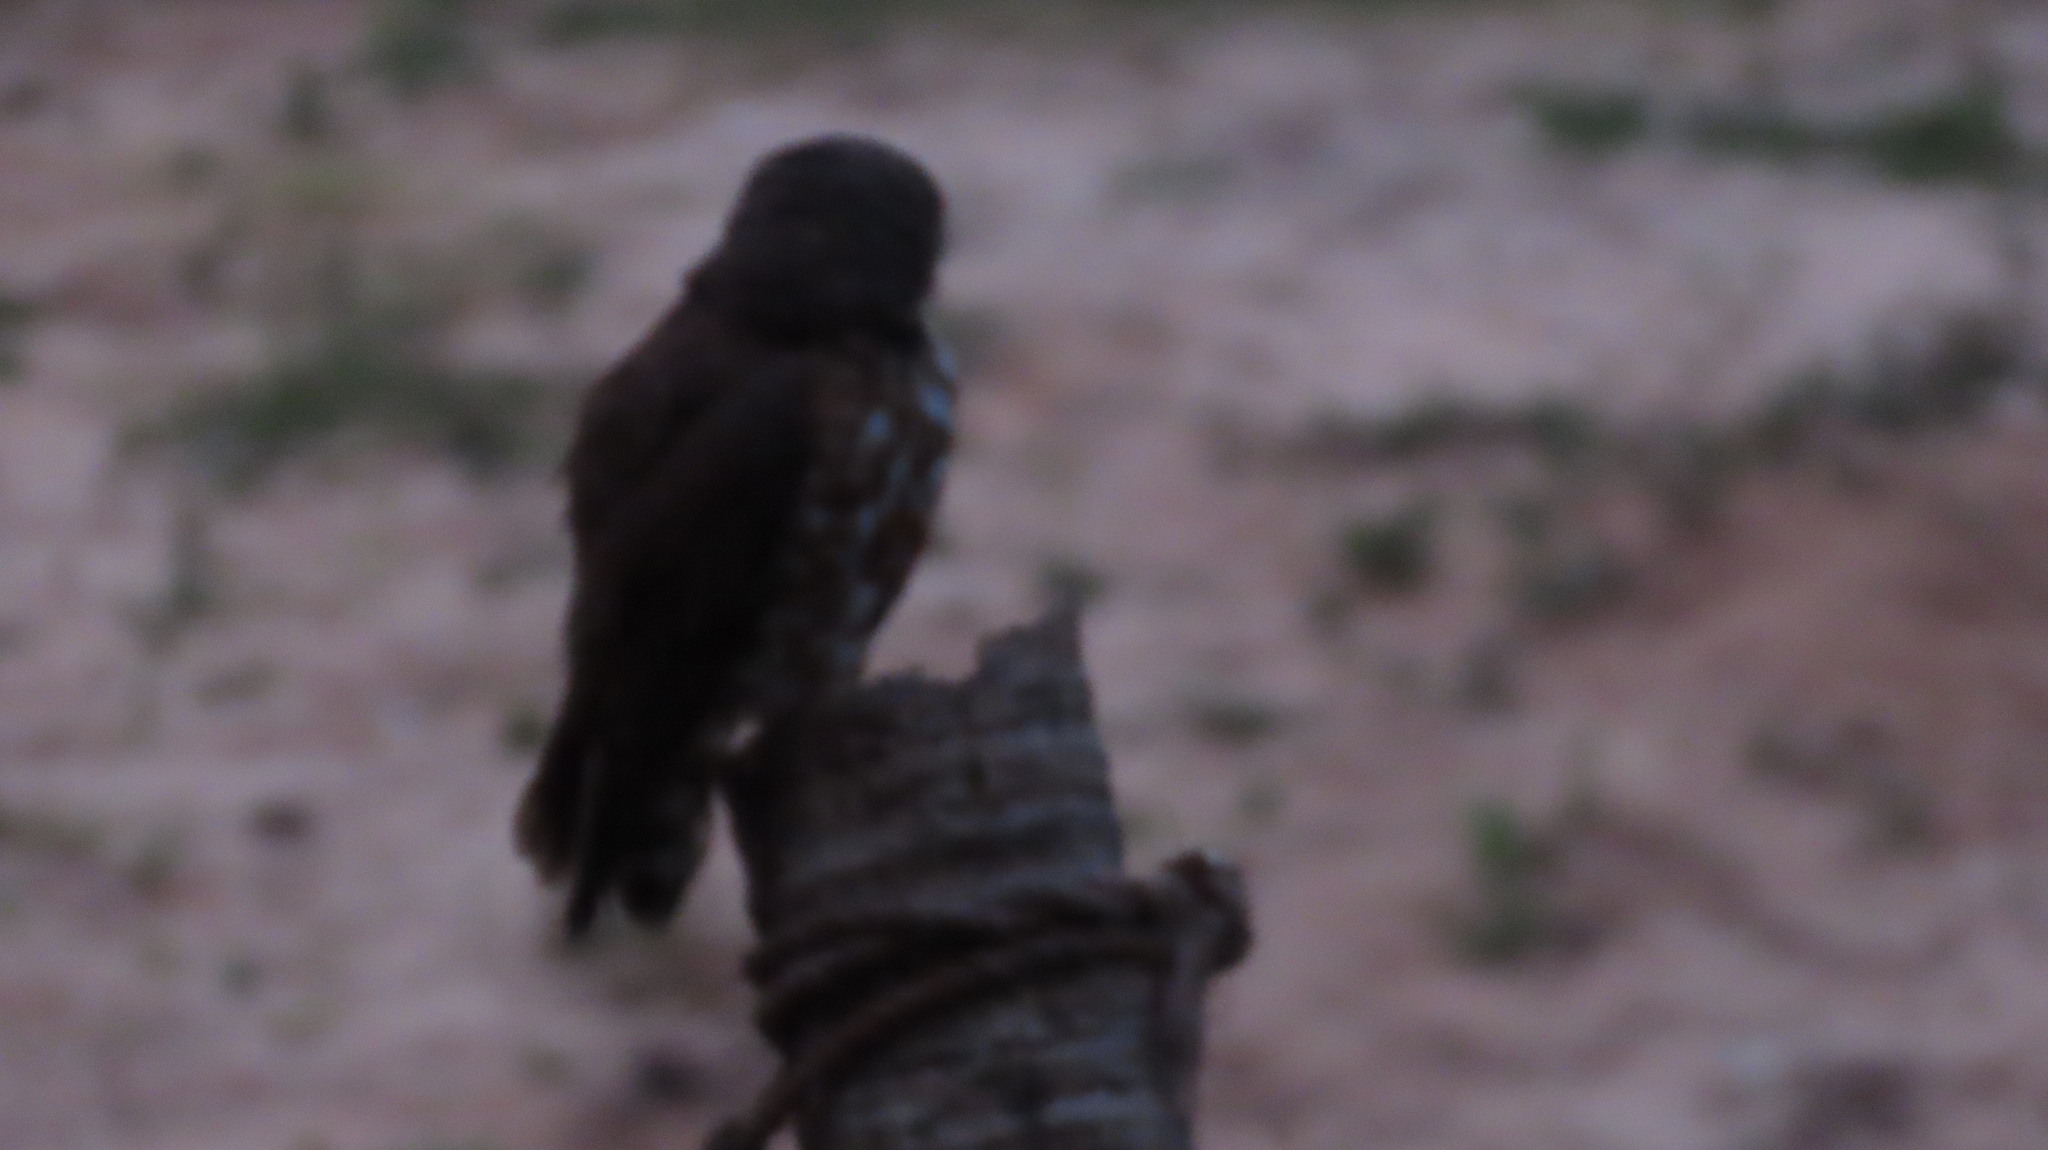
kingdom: Animalia
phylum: Chordata
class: Aves
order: Strigiformes
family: Strigidae
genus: Ninox
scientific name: Ninox scutulata
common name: Brown hawk-owl
